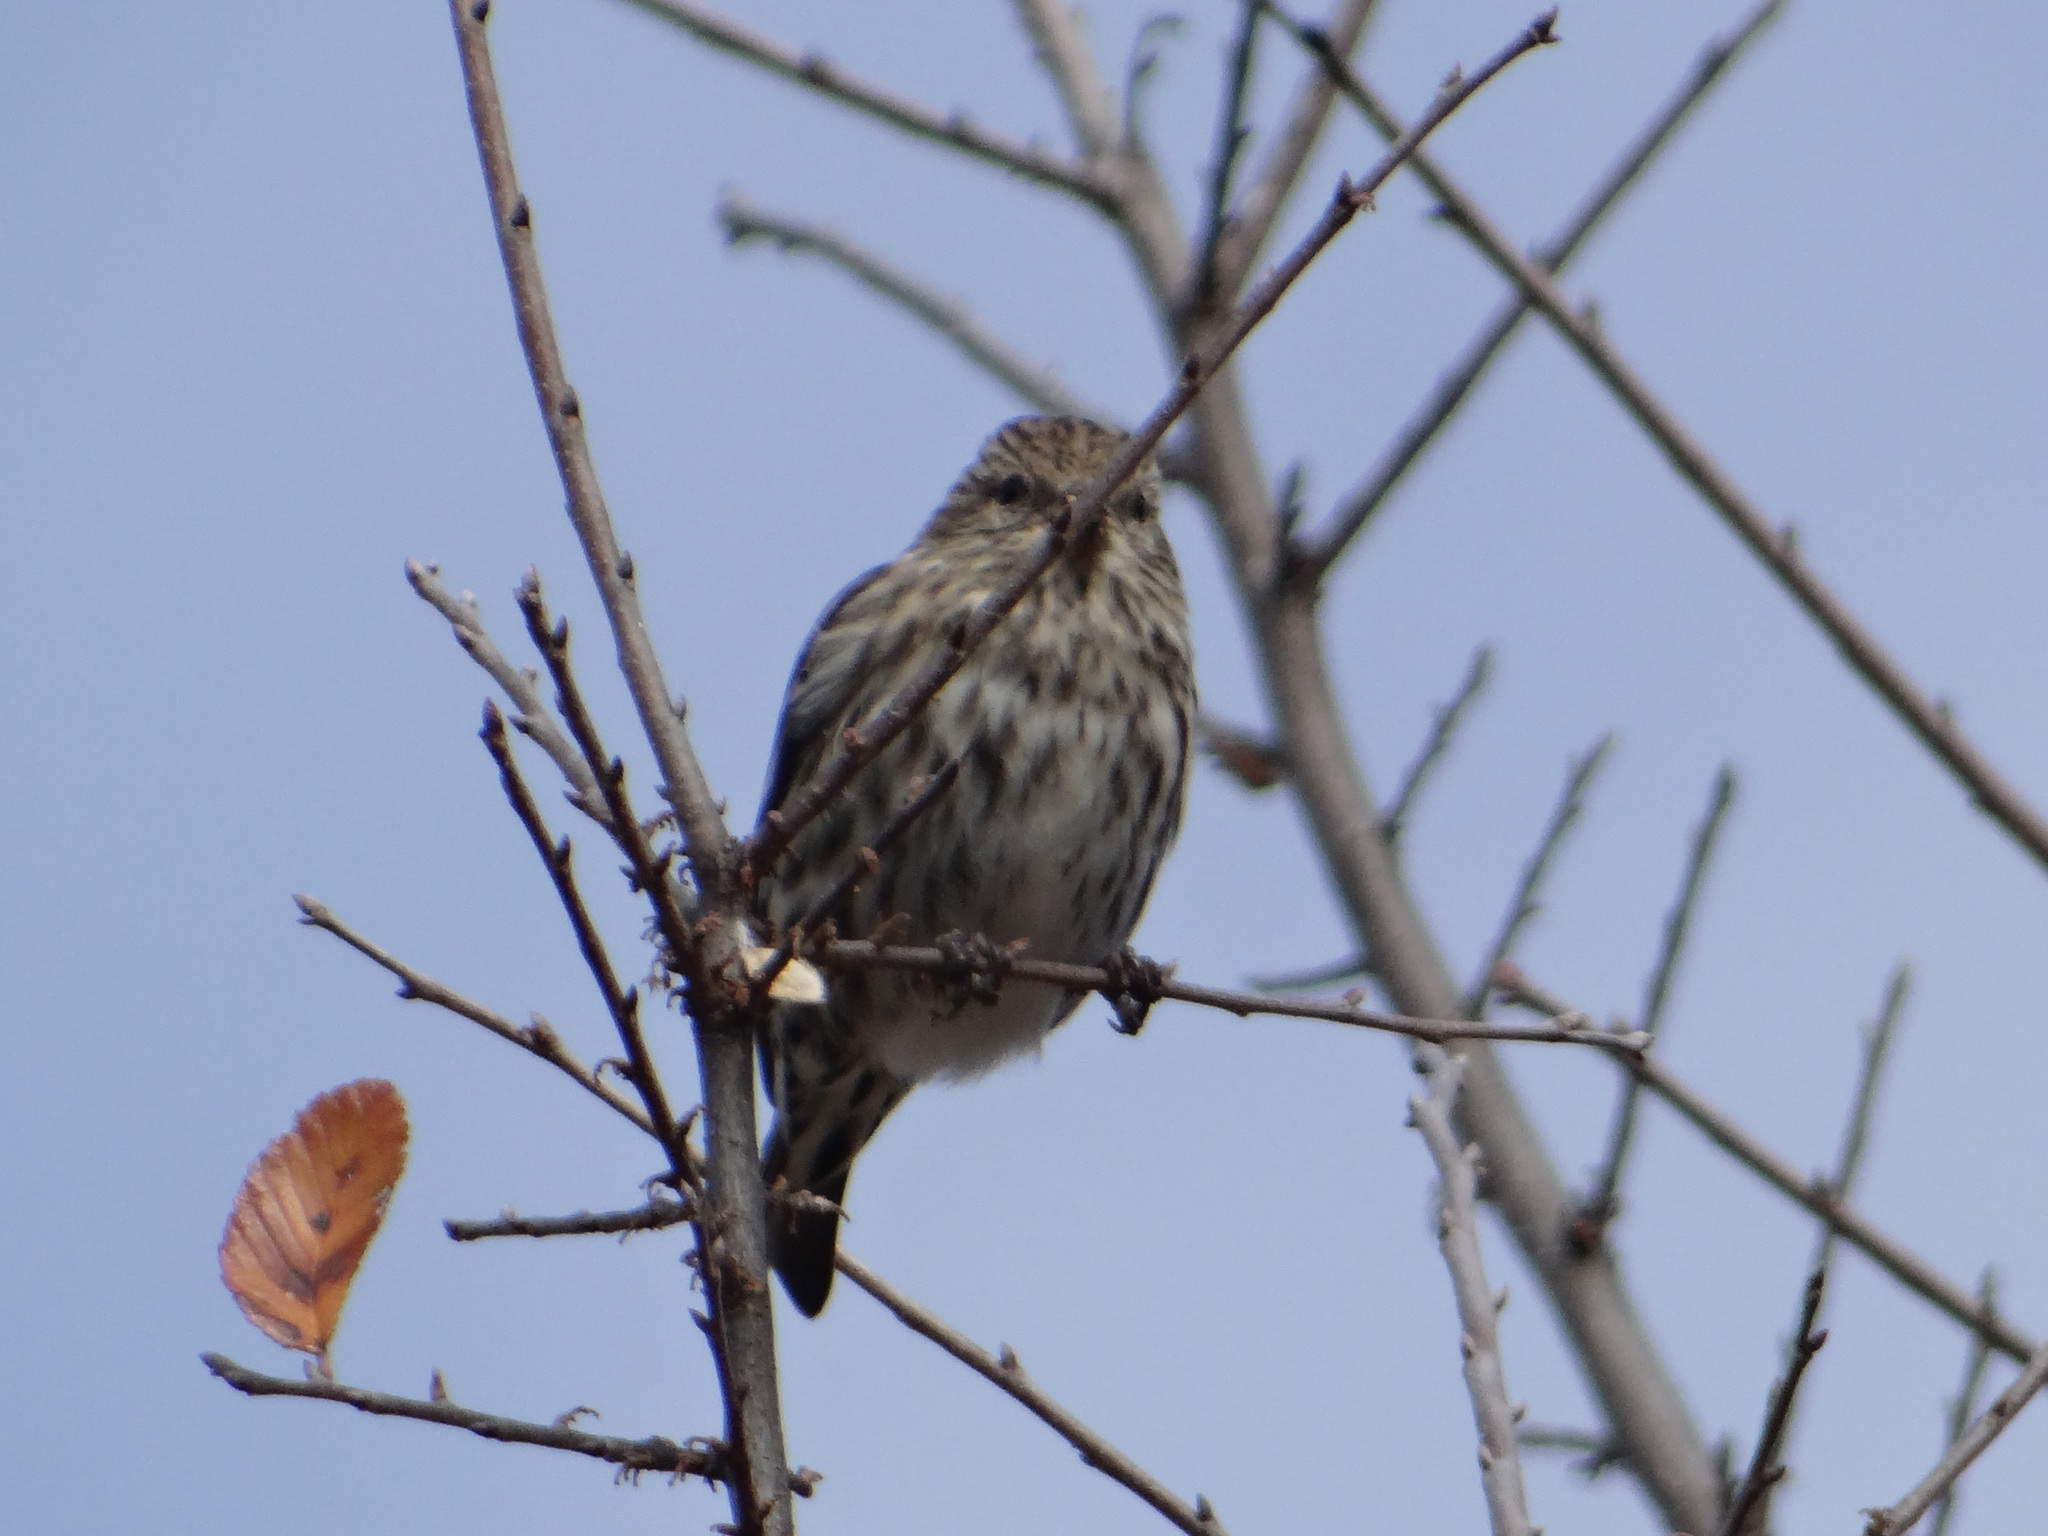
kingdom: Animalia
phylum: Chordata
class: Aves
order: Passeriformes
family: Fringillidae
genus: Spinus
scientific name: Spinus pinus
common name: Pine siskin
